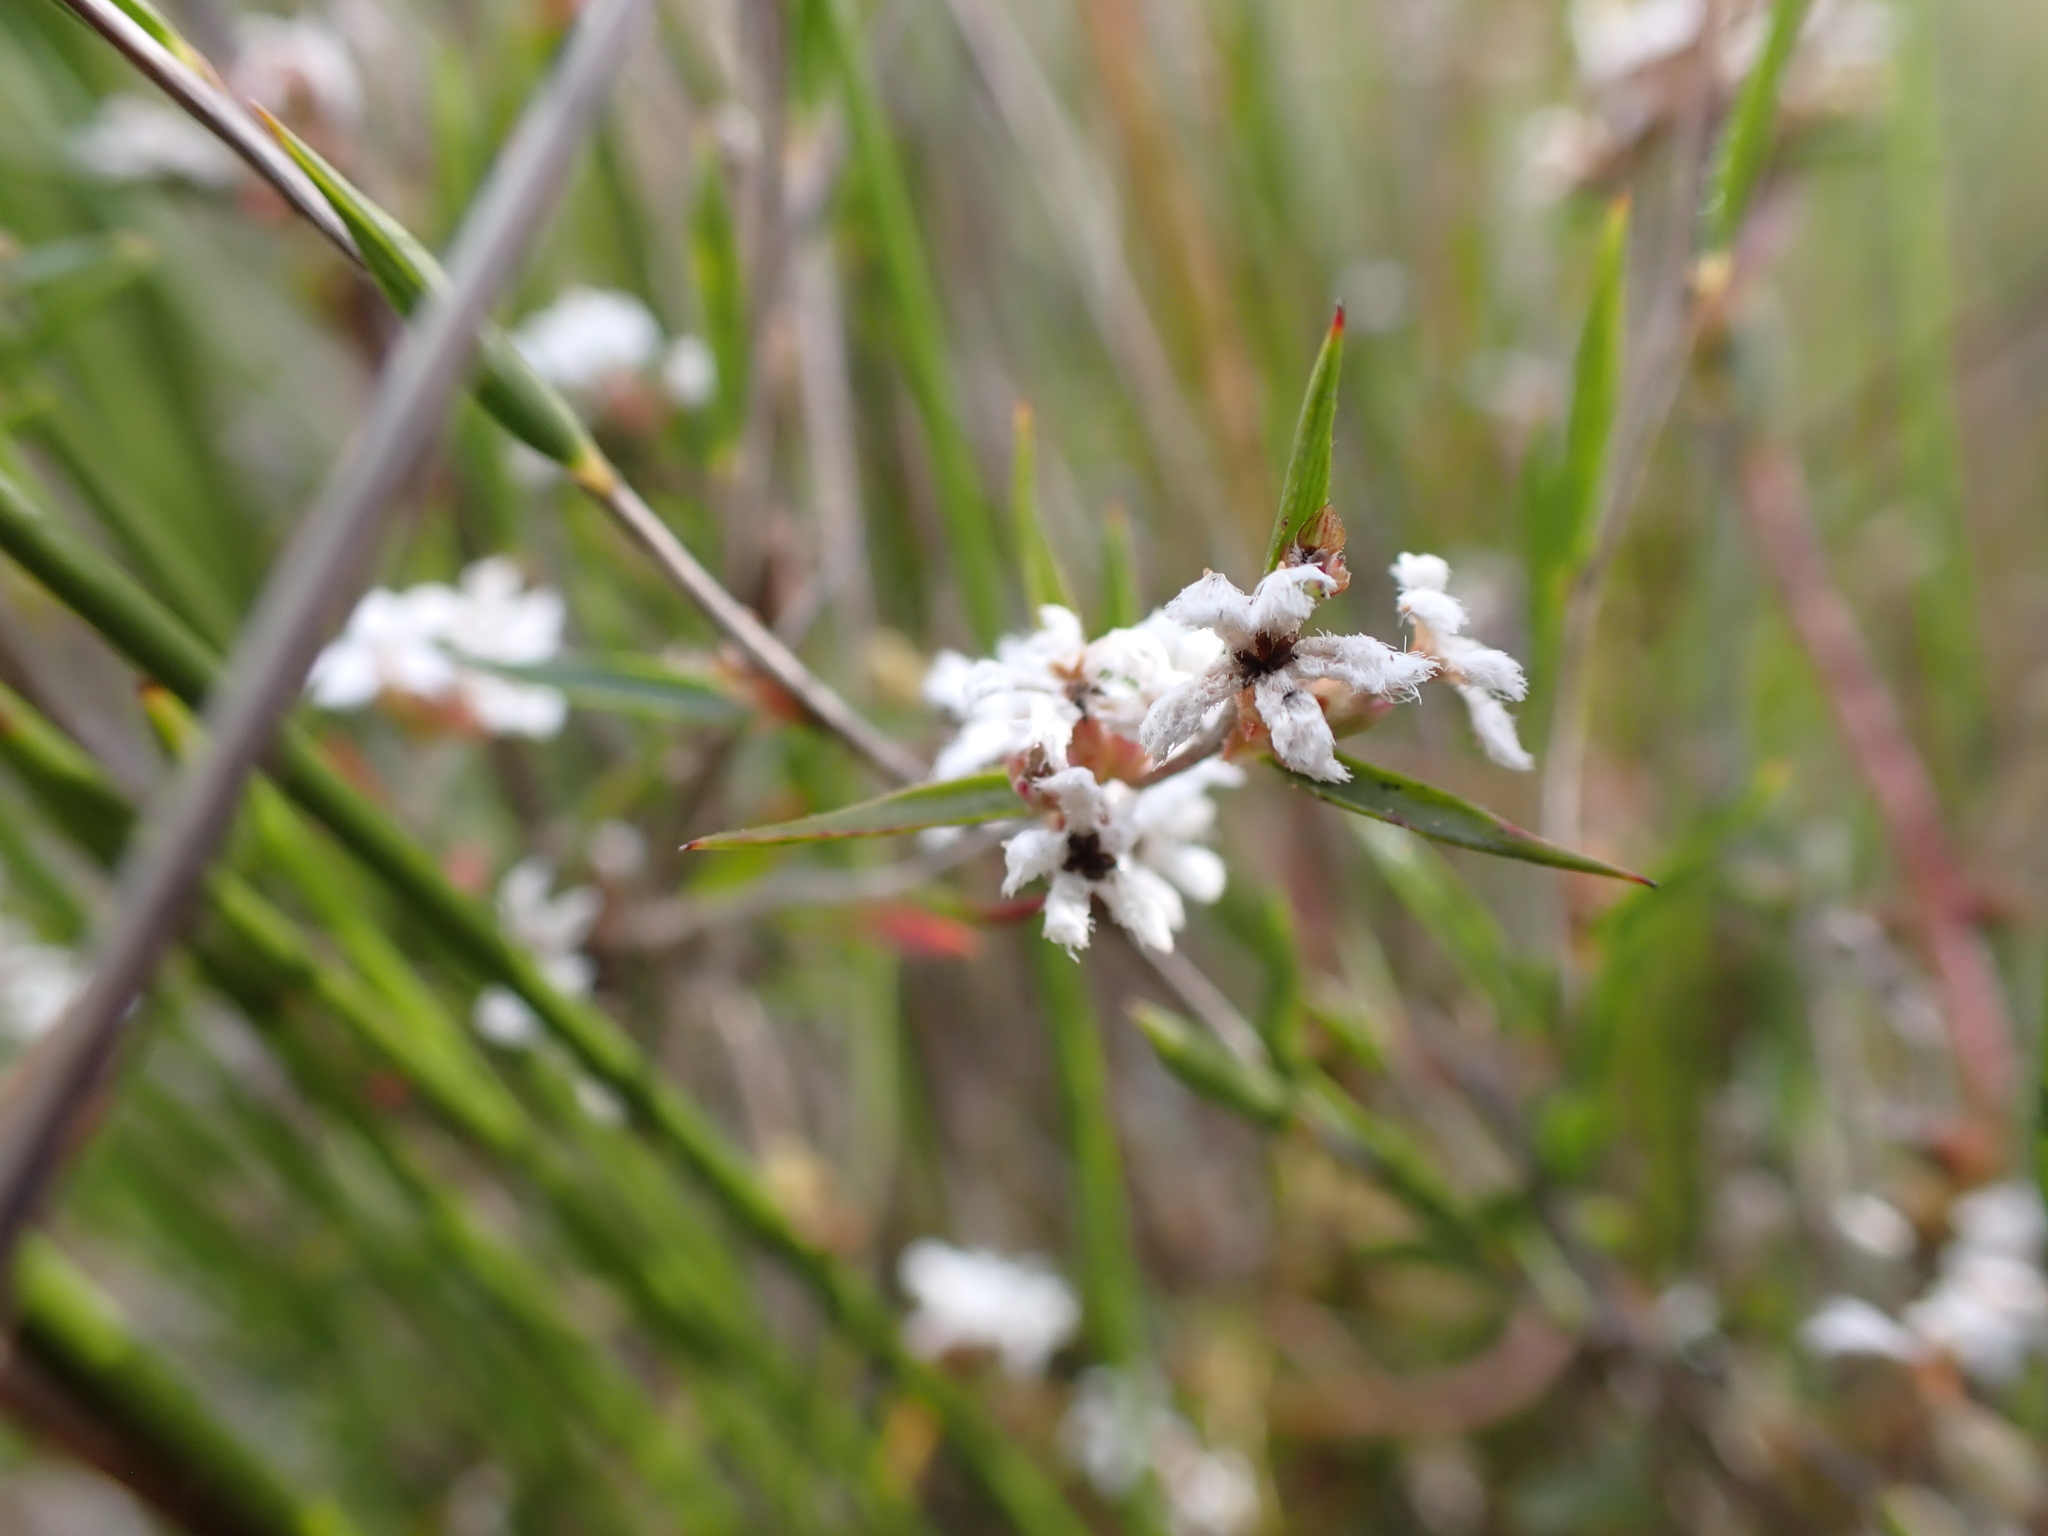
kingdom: Plantae
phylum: Tracheophyta
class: Magnoliopsida
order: Ericales
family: Ericaceae
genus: Leucopogon
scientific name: Leucopogon virgatus
